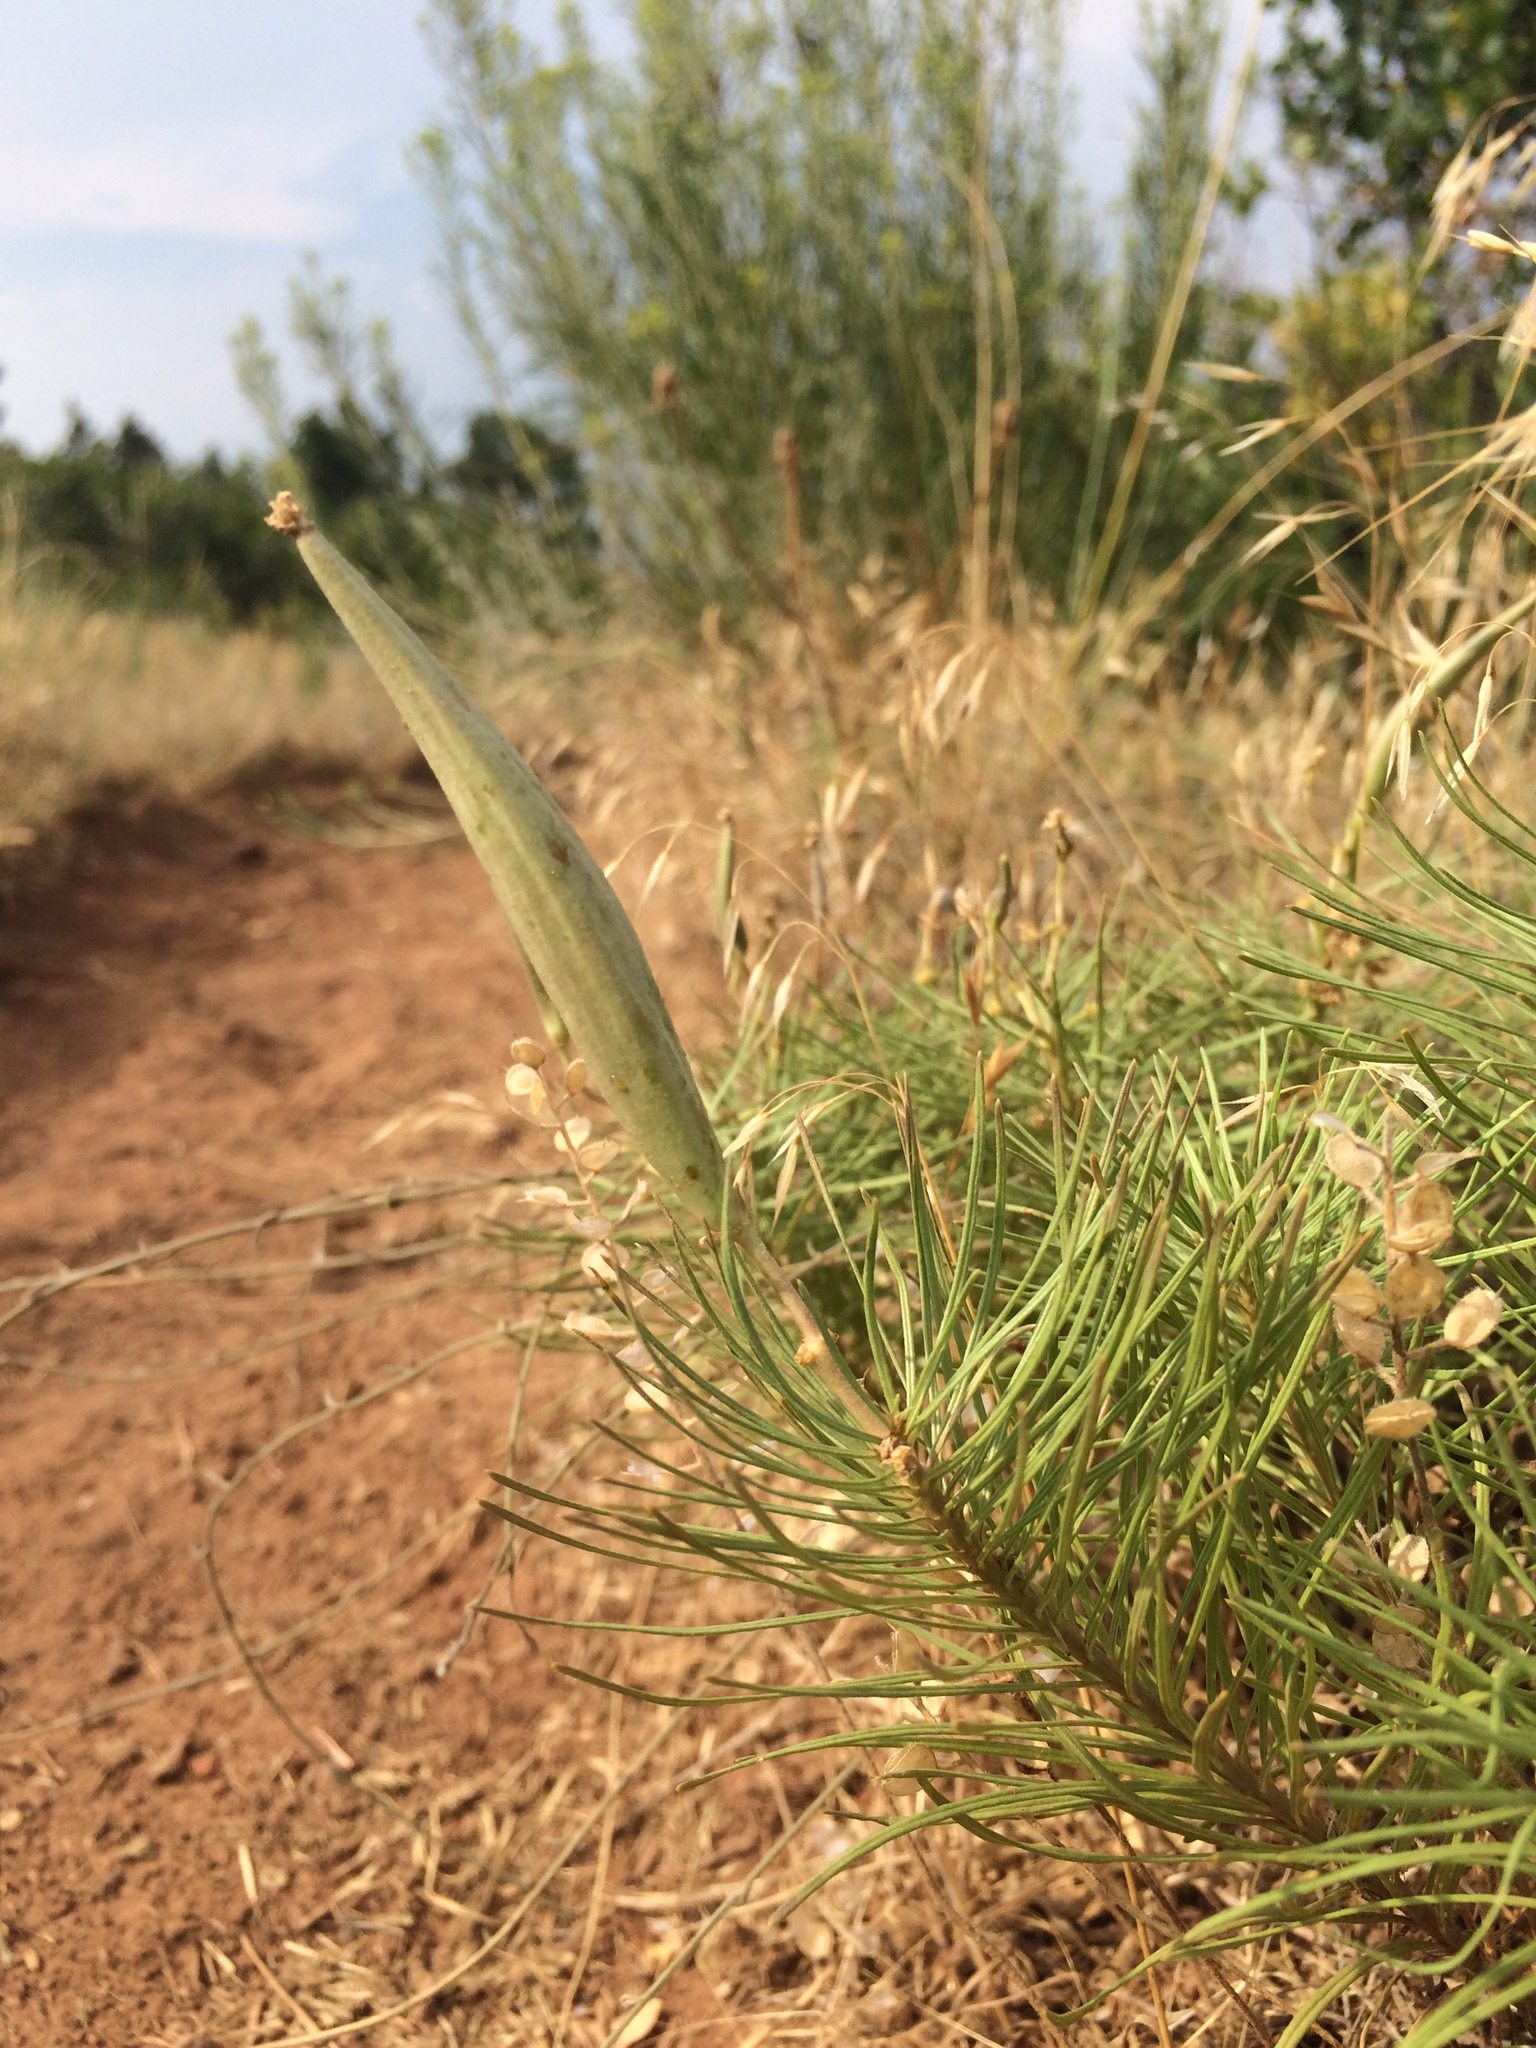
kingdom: Plantae
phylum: Tracheophyta
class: Magnoliopsida
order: Gentianales
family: Apocynaceae
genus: Asclepias
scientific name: Asclepias pumila
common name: Dwarf milkweed
